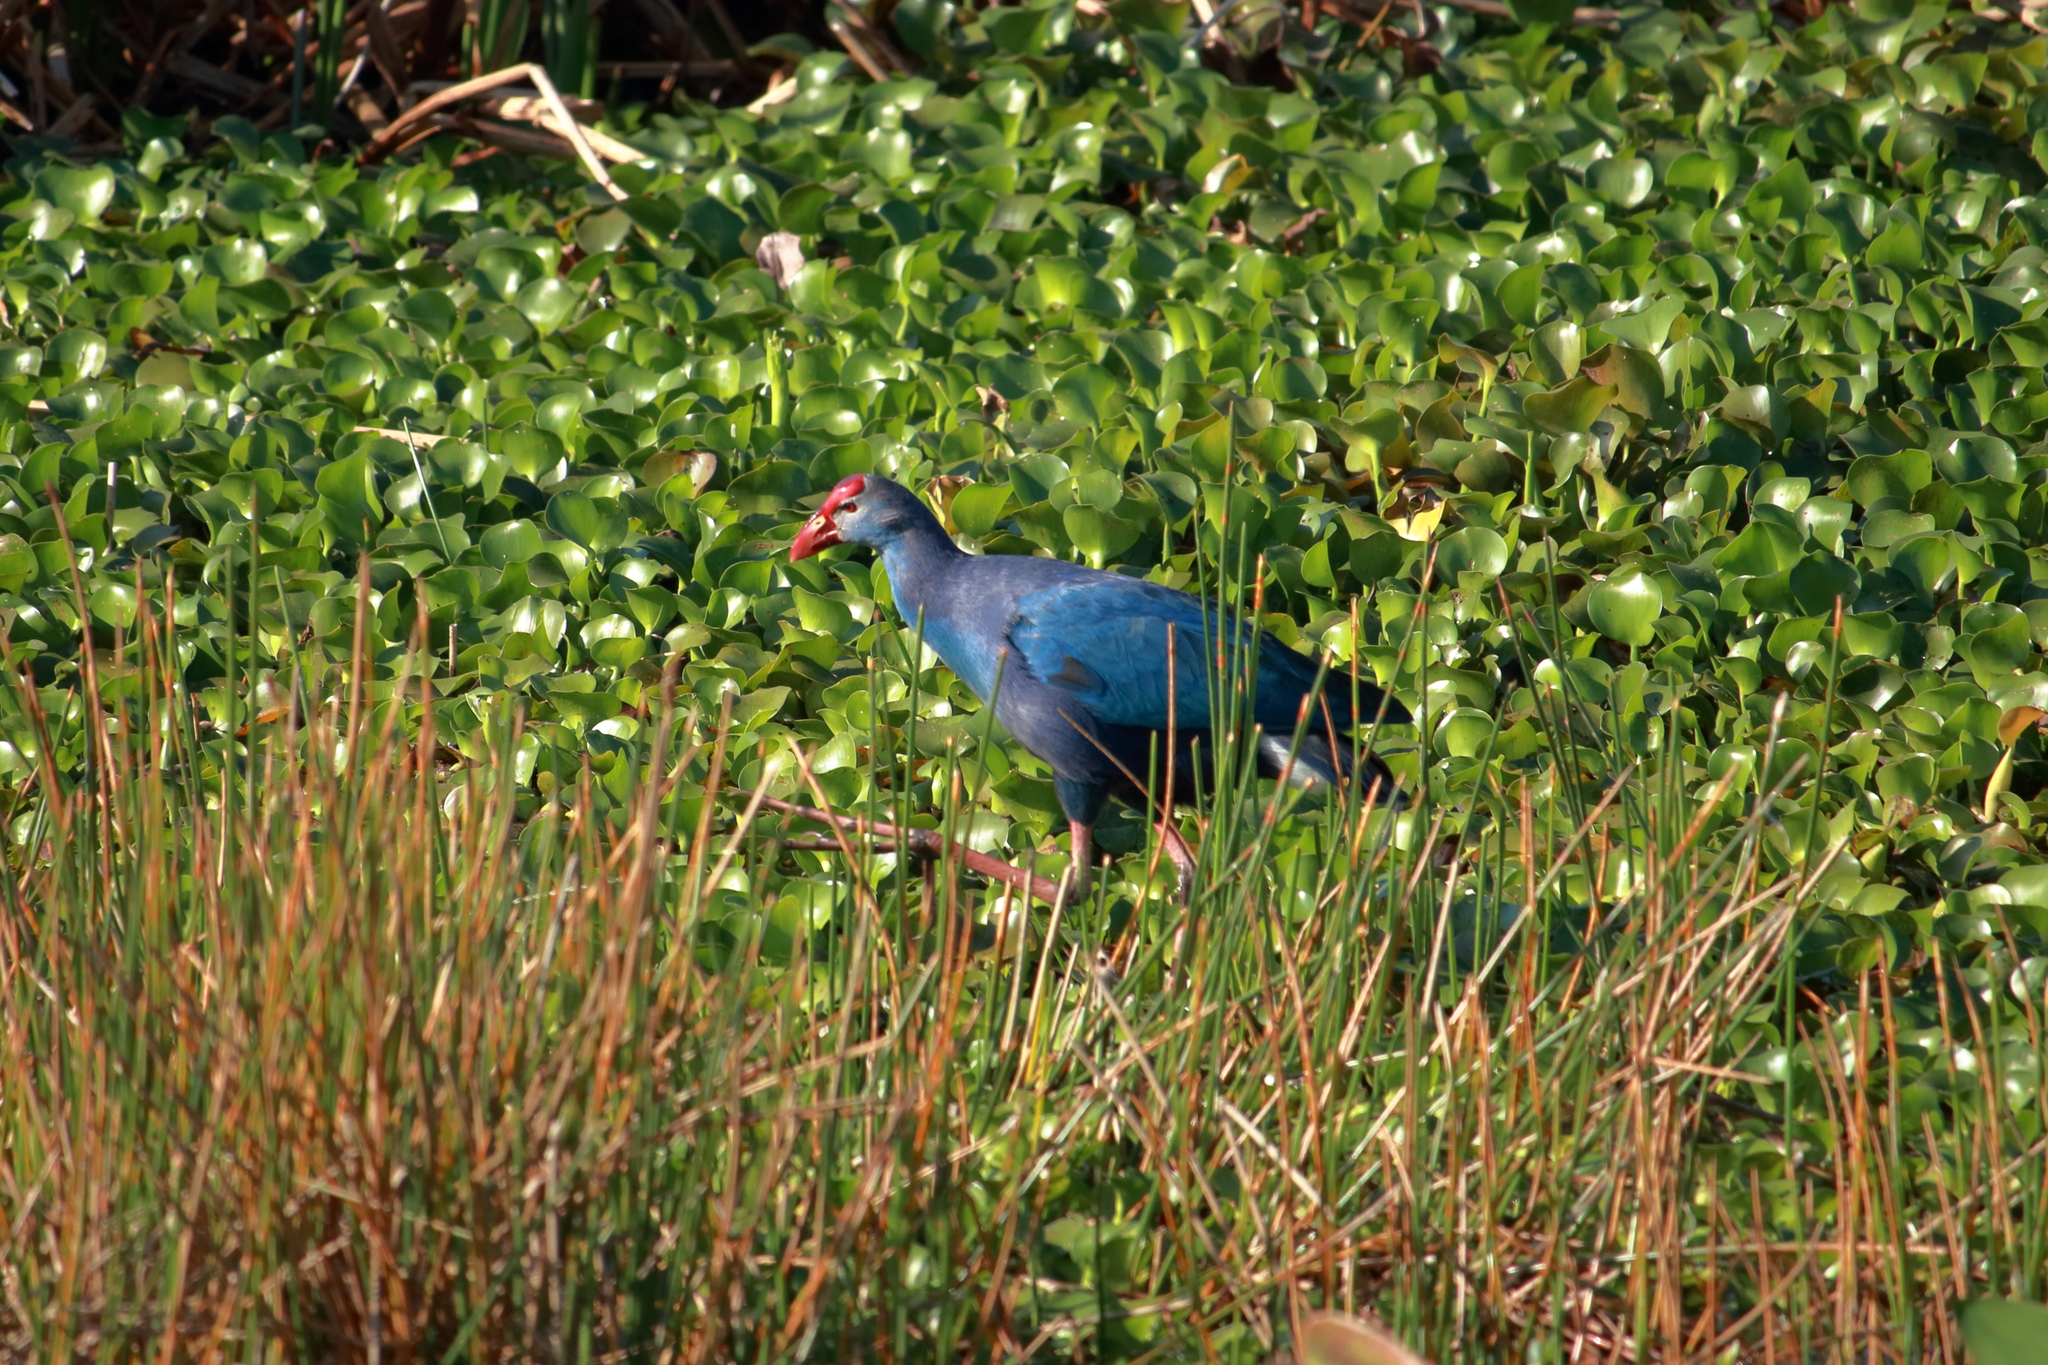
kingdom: Animalia
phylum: Chordata
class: Aves
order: Gruiformes
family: Rallidae
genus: Porphyrio
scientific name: Porphyrio porphyrio
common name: Purple swamphen
